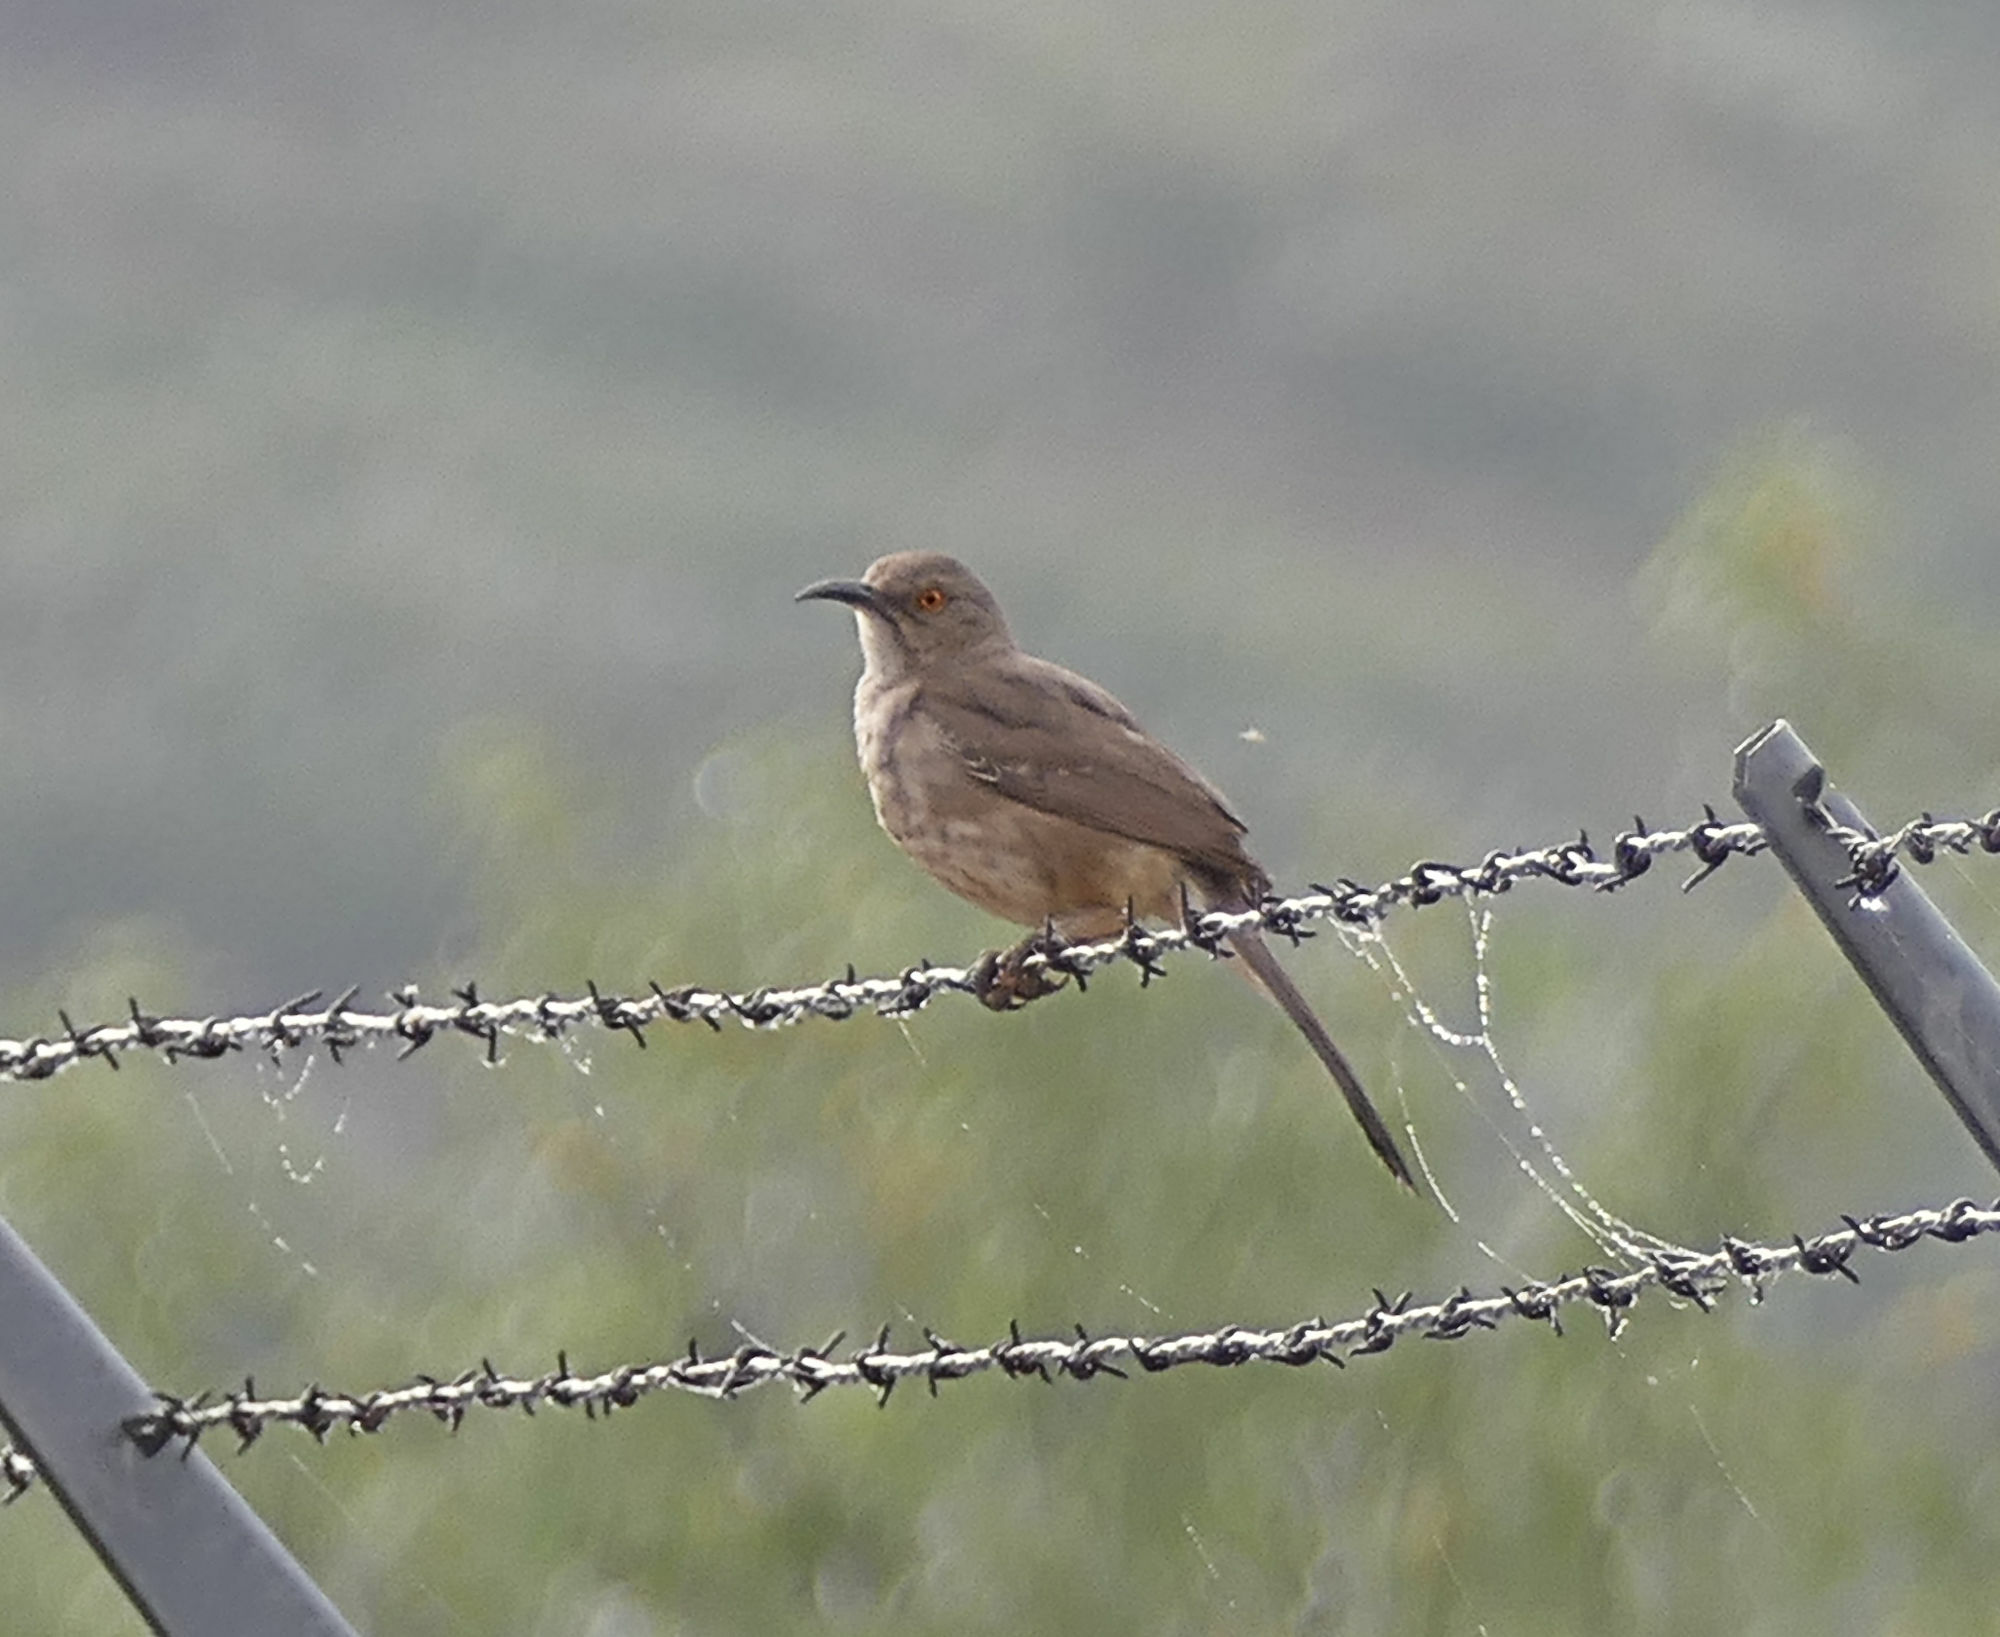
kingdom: Animalia
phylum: Chordata
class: Aves
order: Passeriformes
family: Mimidae
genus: Toxostoma
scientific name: Toxostoma curvirostre
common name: Curve-billed thrasher
